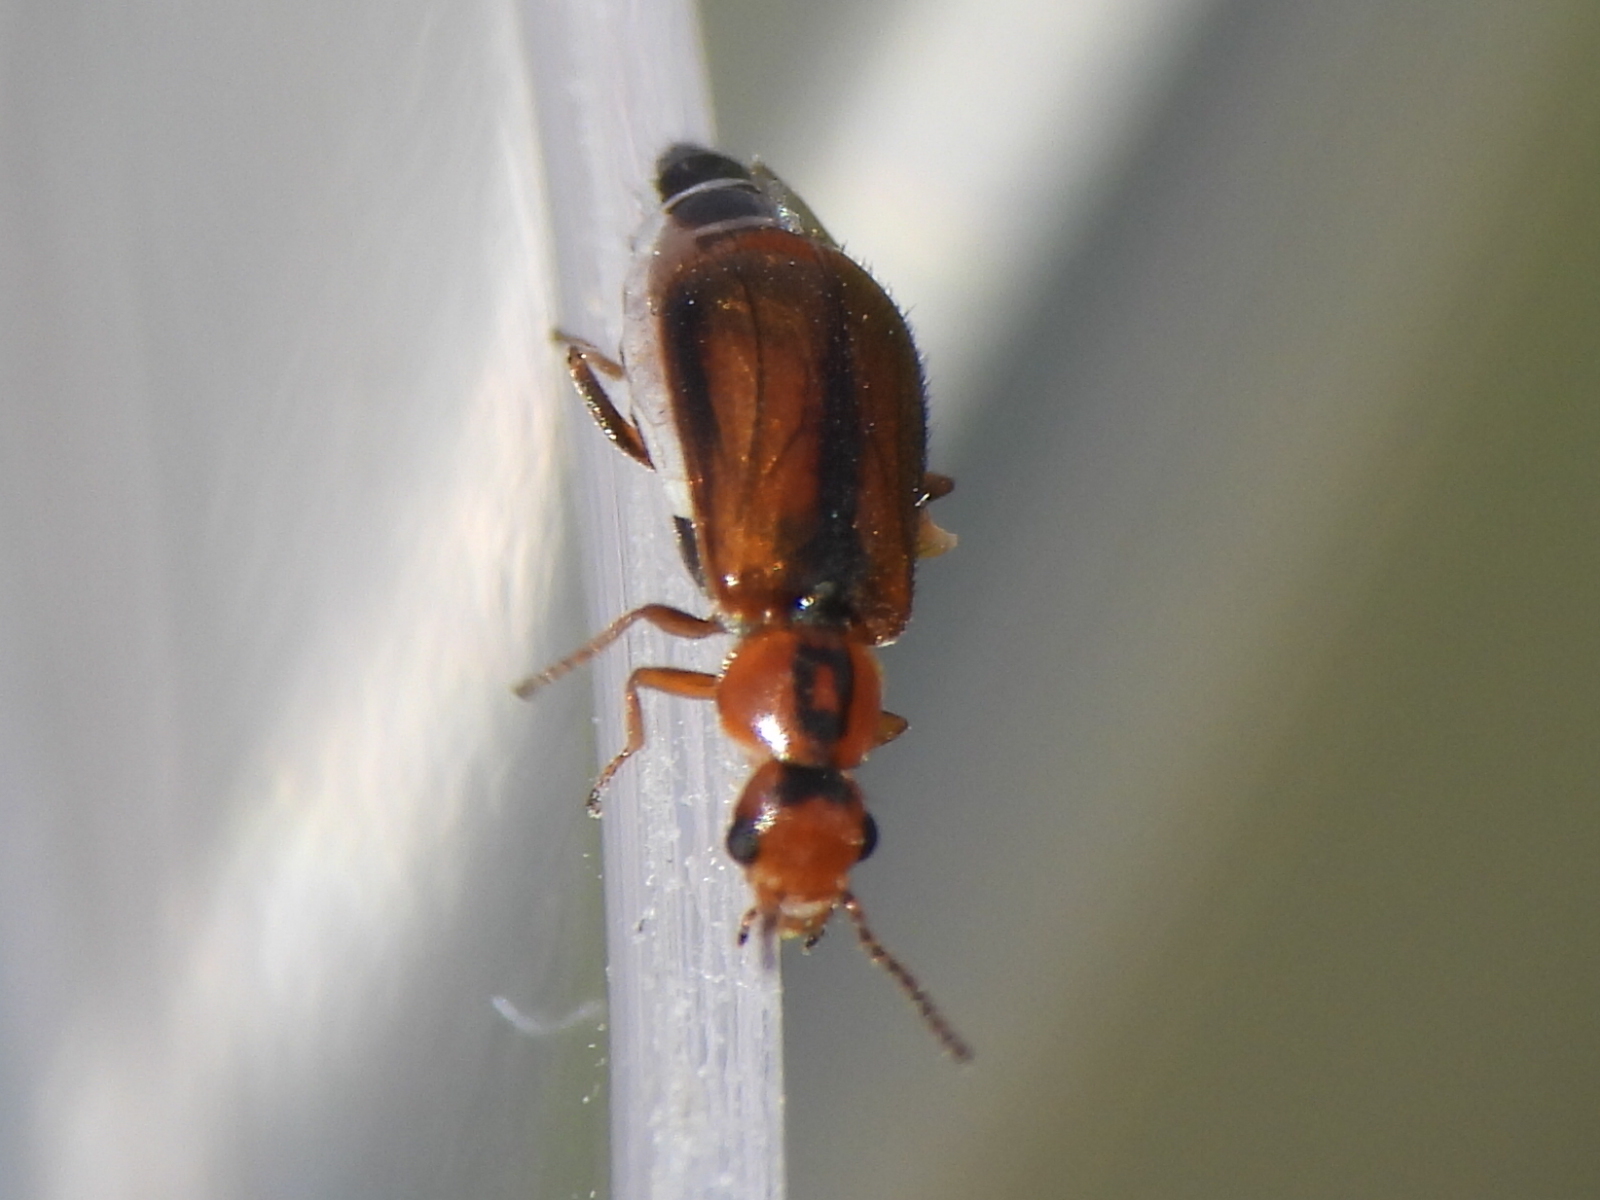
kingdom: Animalia
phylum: Arthropoda
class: Insecta
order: Coleoptera
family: Malachiidae
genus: Attalus
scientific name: Attalus
